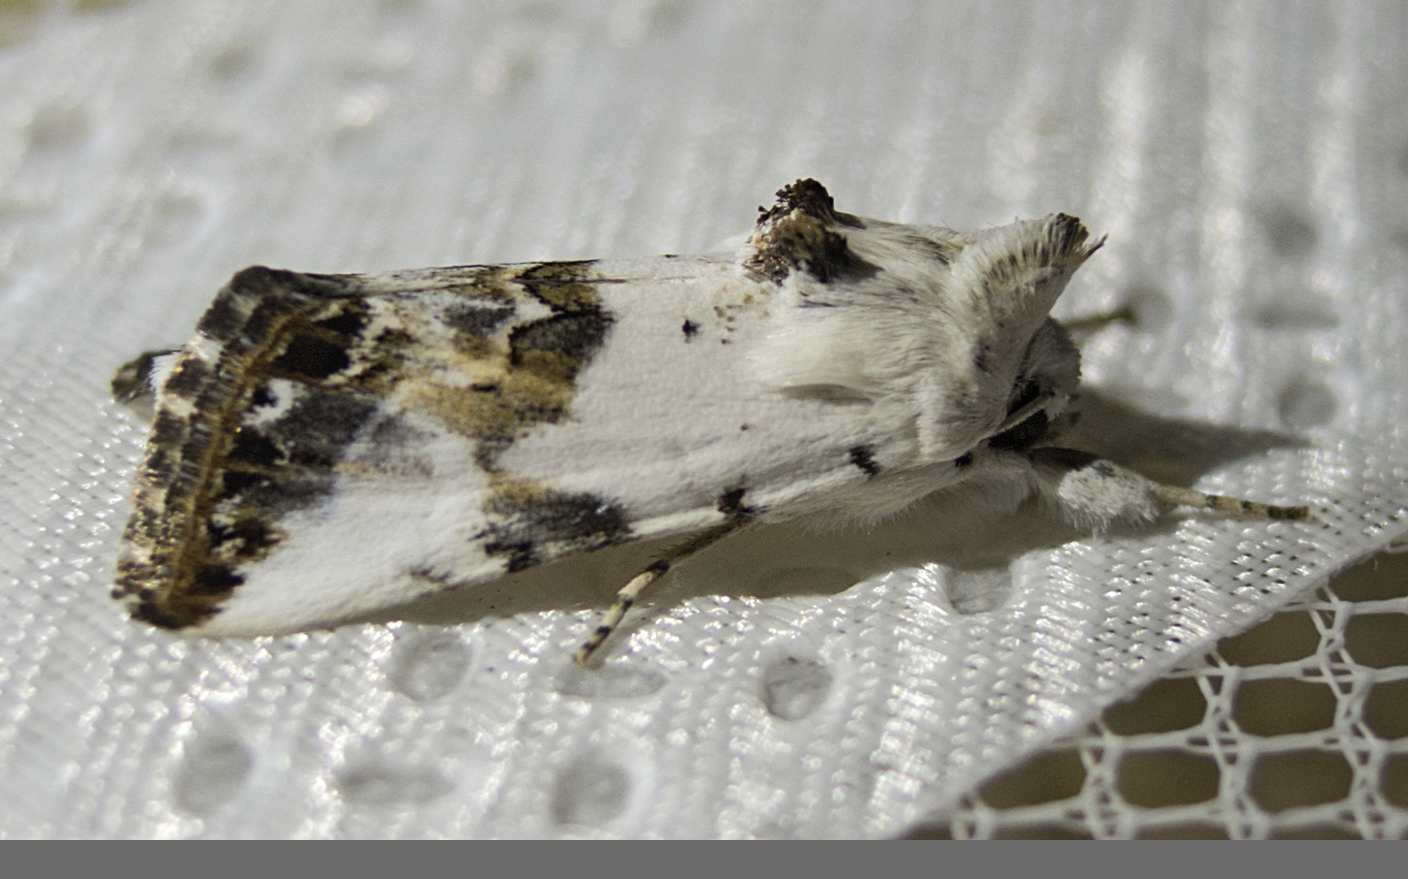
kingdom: Animalia
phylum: Arthropoda
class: Insecta
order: Lepidoptera
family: Noctuidae
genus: Calophasia
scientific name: Calophasia opalina
